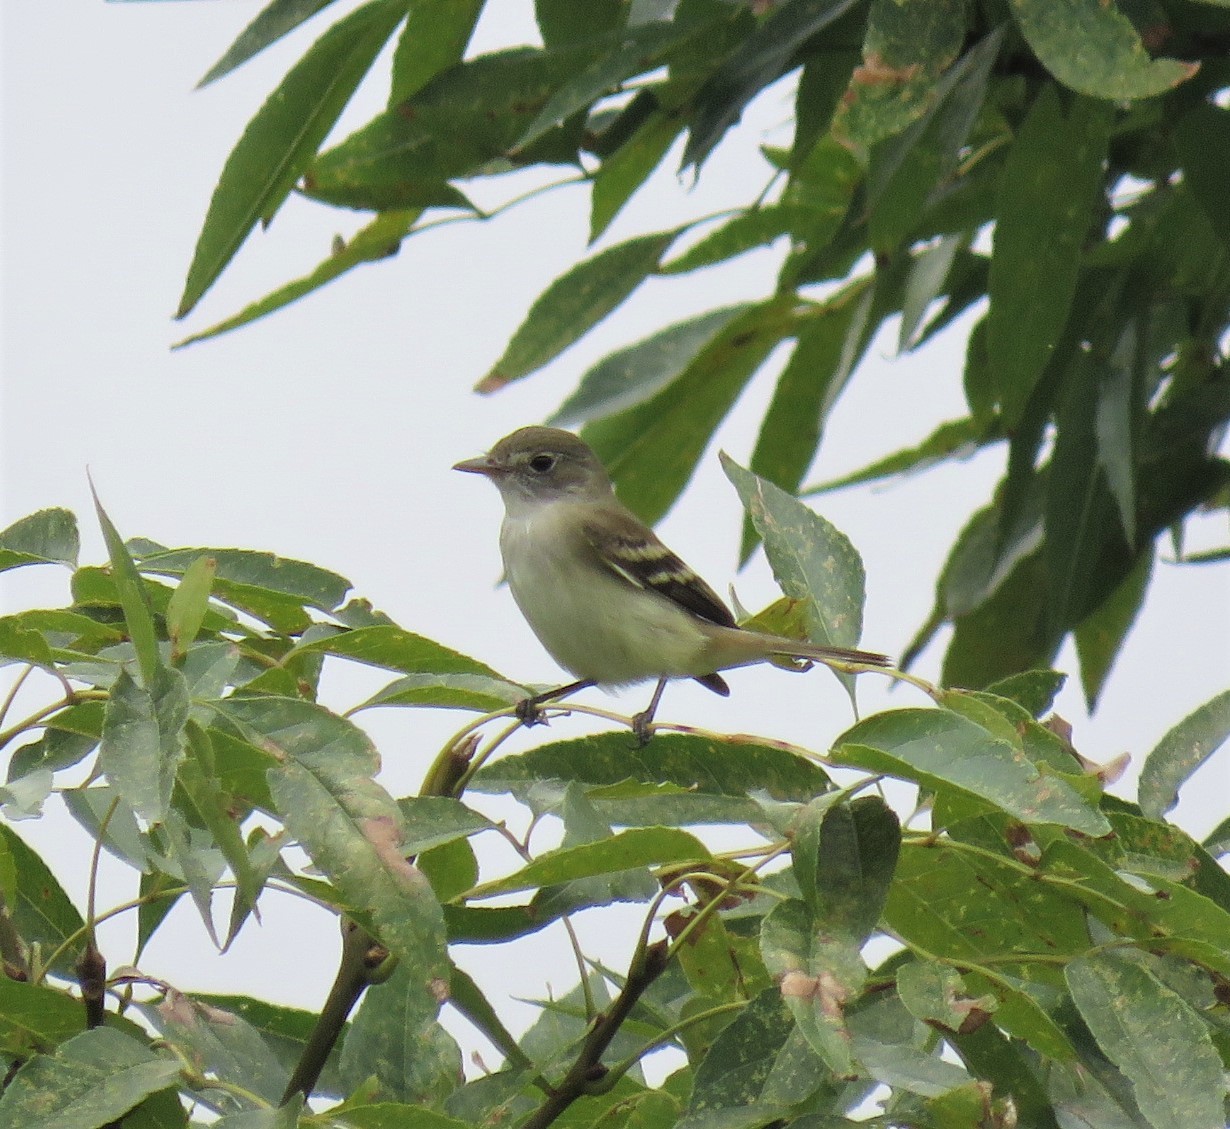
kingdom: Animalia
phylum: Chordata
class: Aves
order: Passeriformes
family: Tyrannidae
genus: Empidonax
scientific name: Empidonax alnorum
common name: Alder flycatcher
